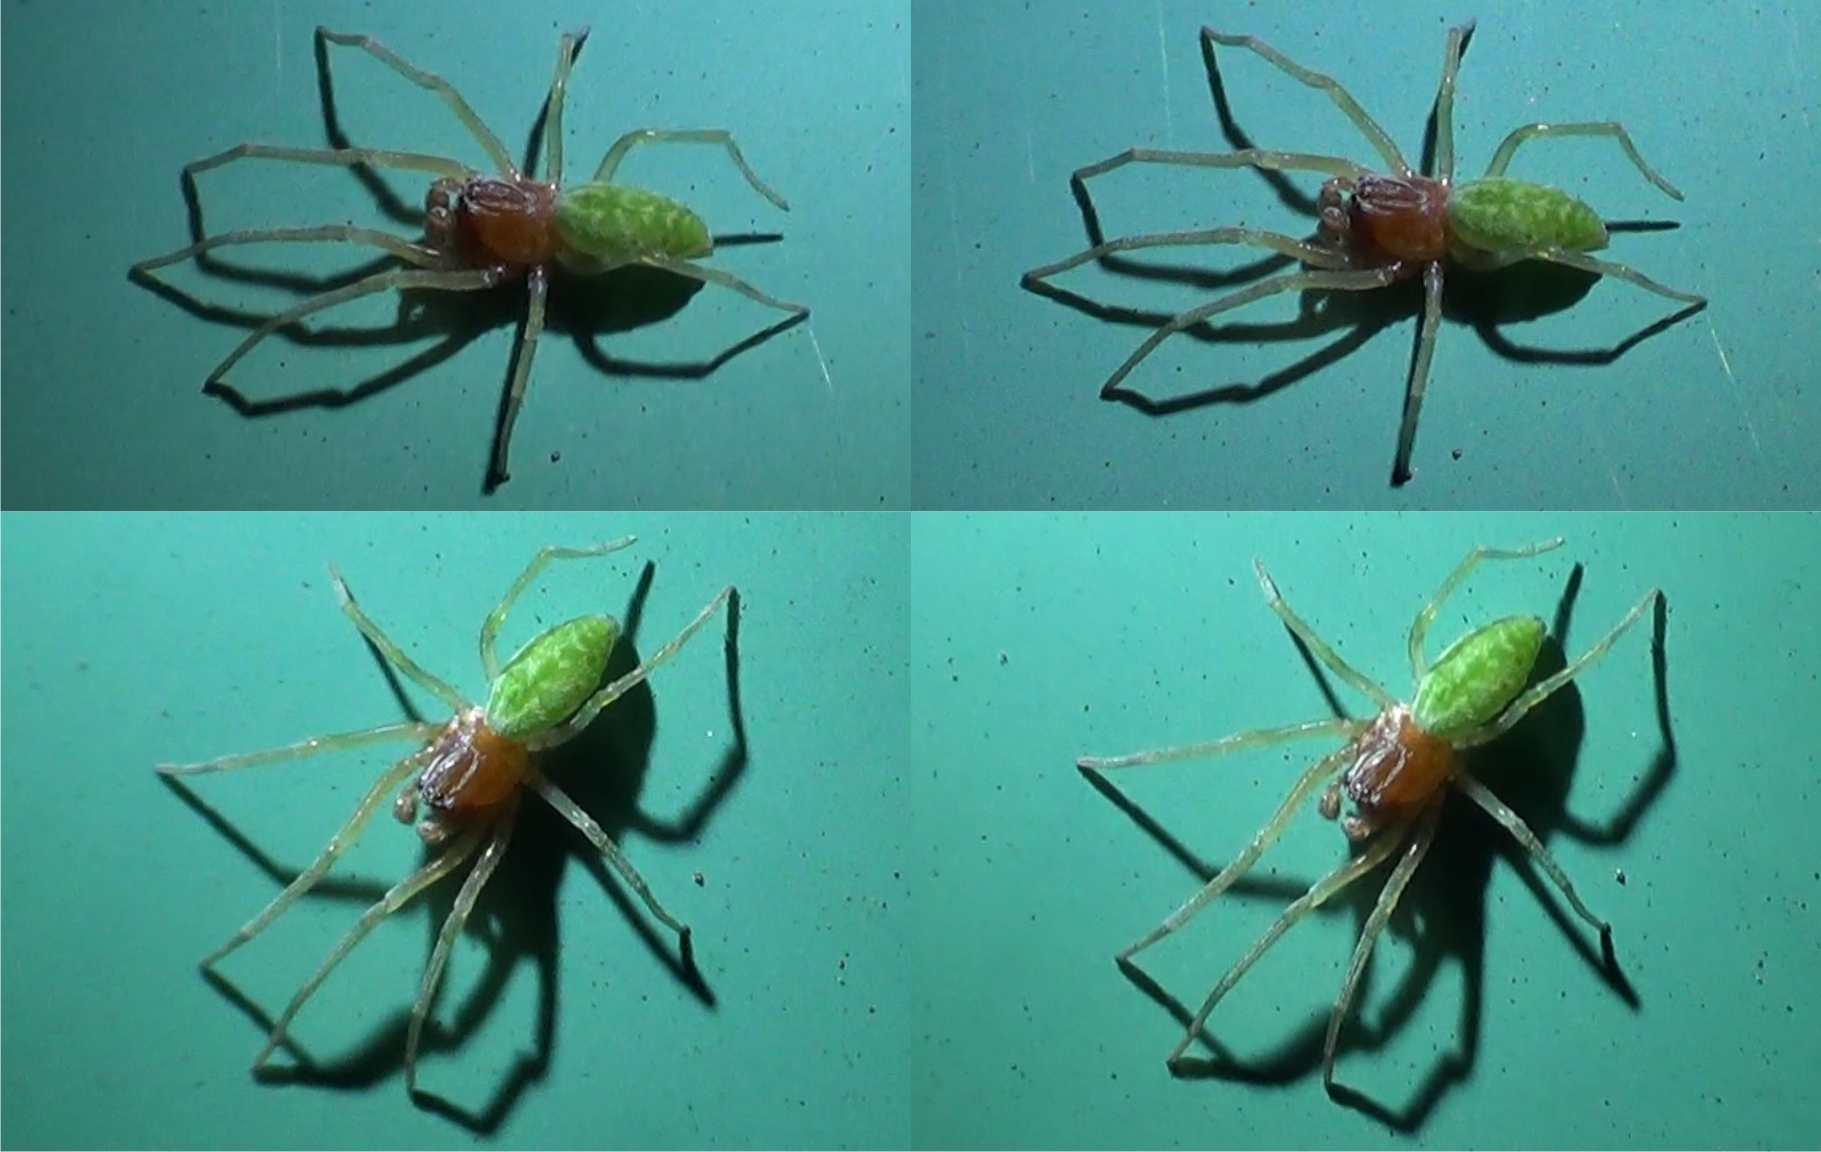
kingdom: Animalia
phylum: Arthropoda
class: Arachnida
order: Araneae
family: Dictynidae
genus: Nigma
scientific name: Nigma walckenaeri
